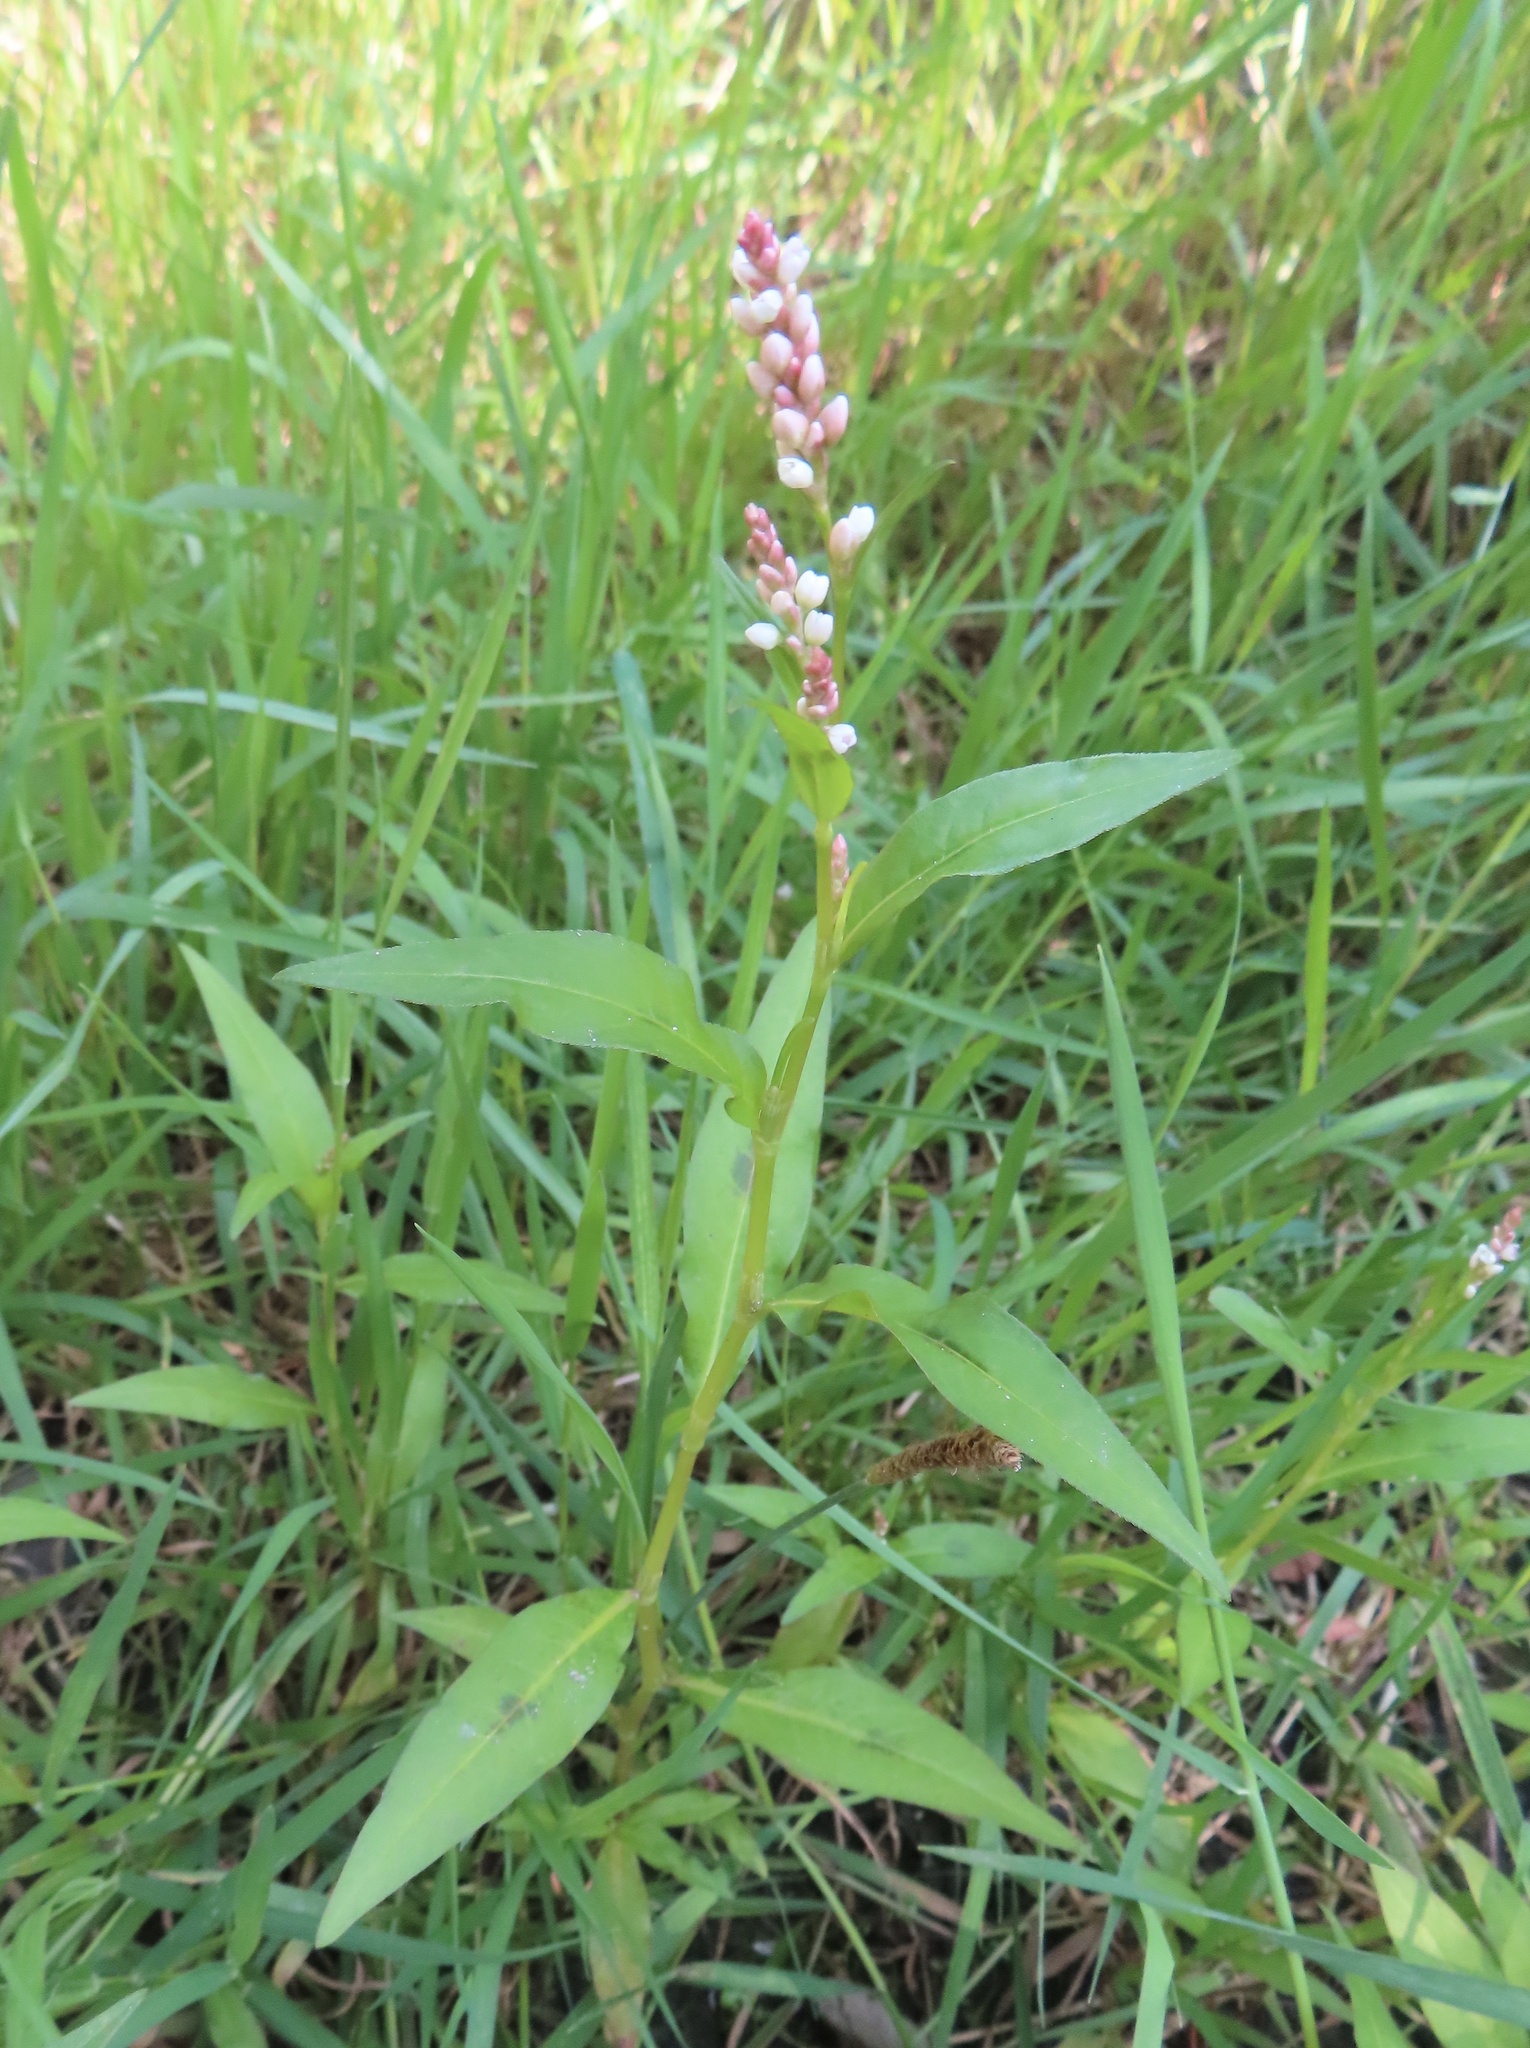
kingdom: Plantae
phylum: Tracheophyta
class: Magnoliopsida
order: Caryophyllales
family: Polygonaceae
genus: Persicaria
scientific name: Persicaria maculosa
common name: Redshank
